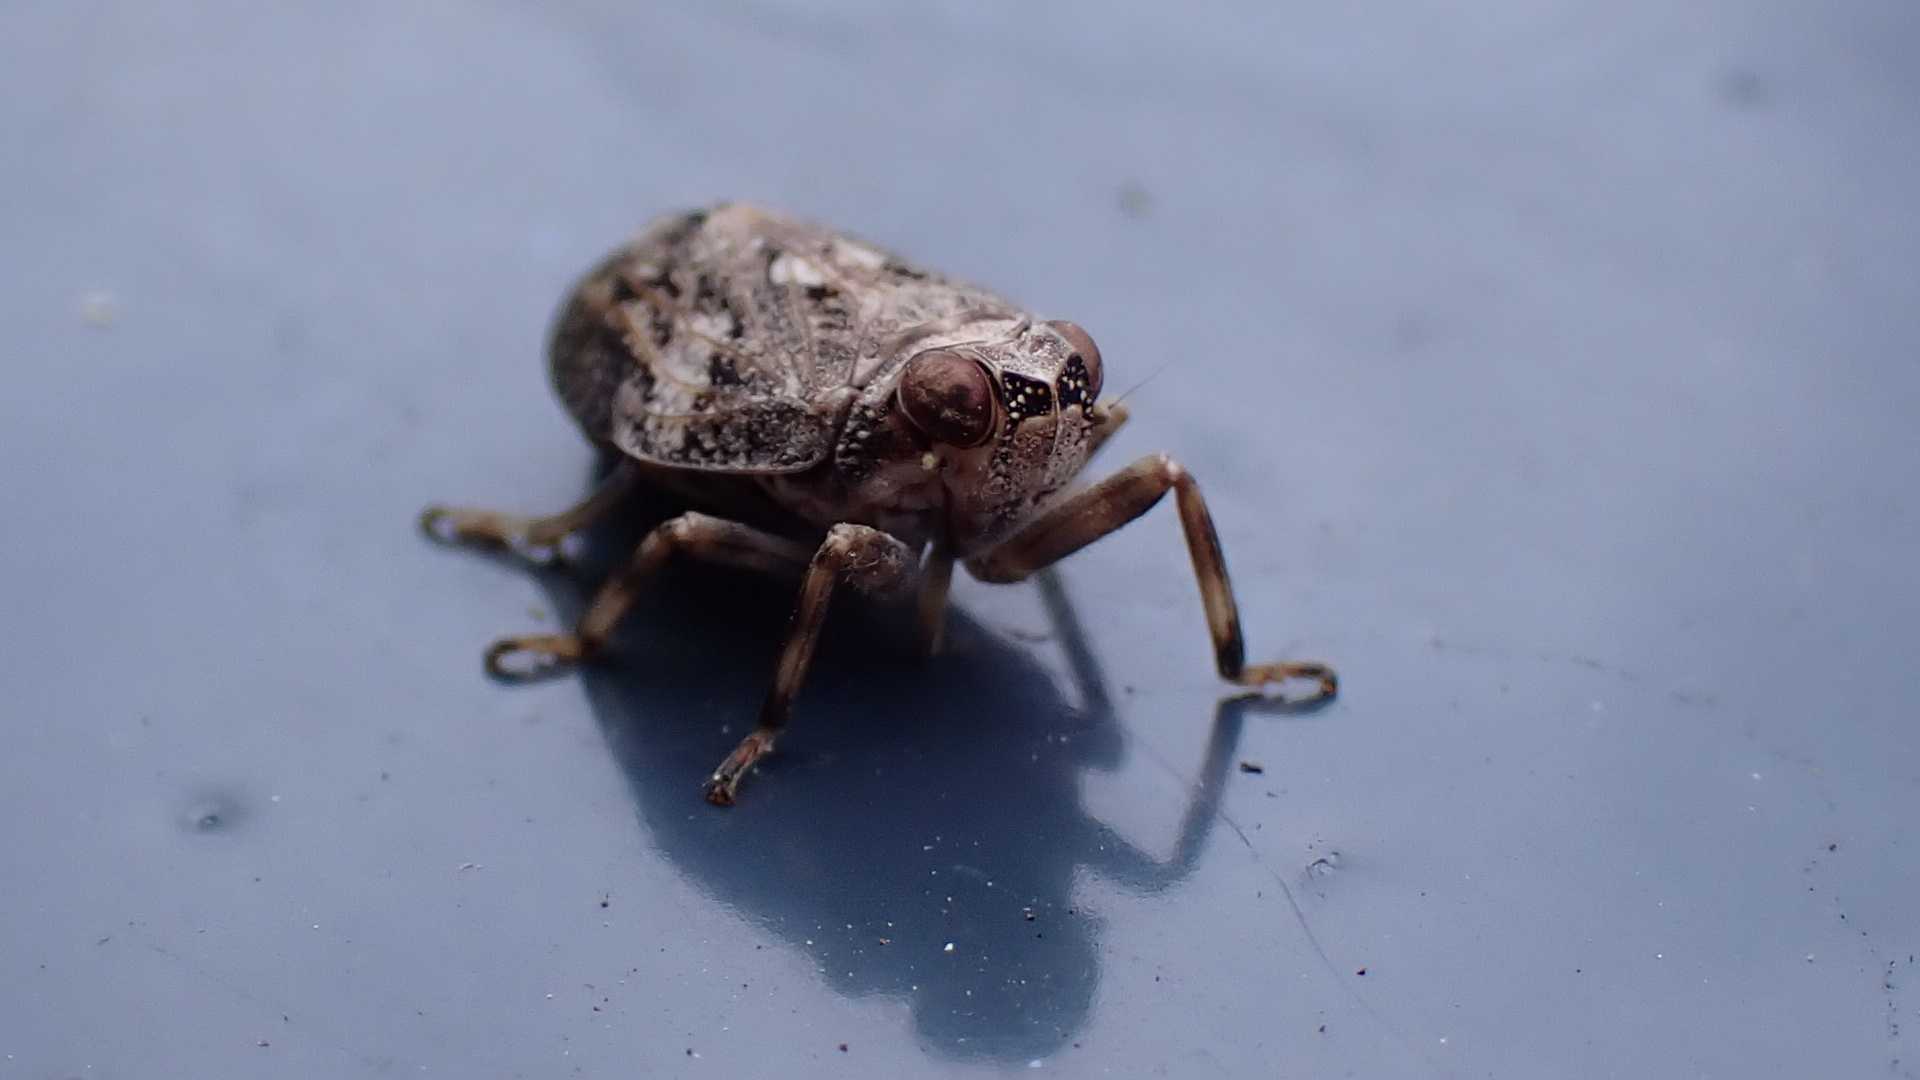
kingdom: Animalia
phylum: Arthropoda
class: Insecta
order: Hemiptera
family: Issidae
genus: Issus
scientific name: Issus coleoptratus
